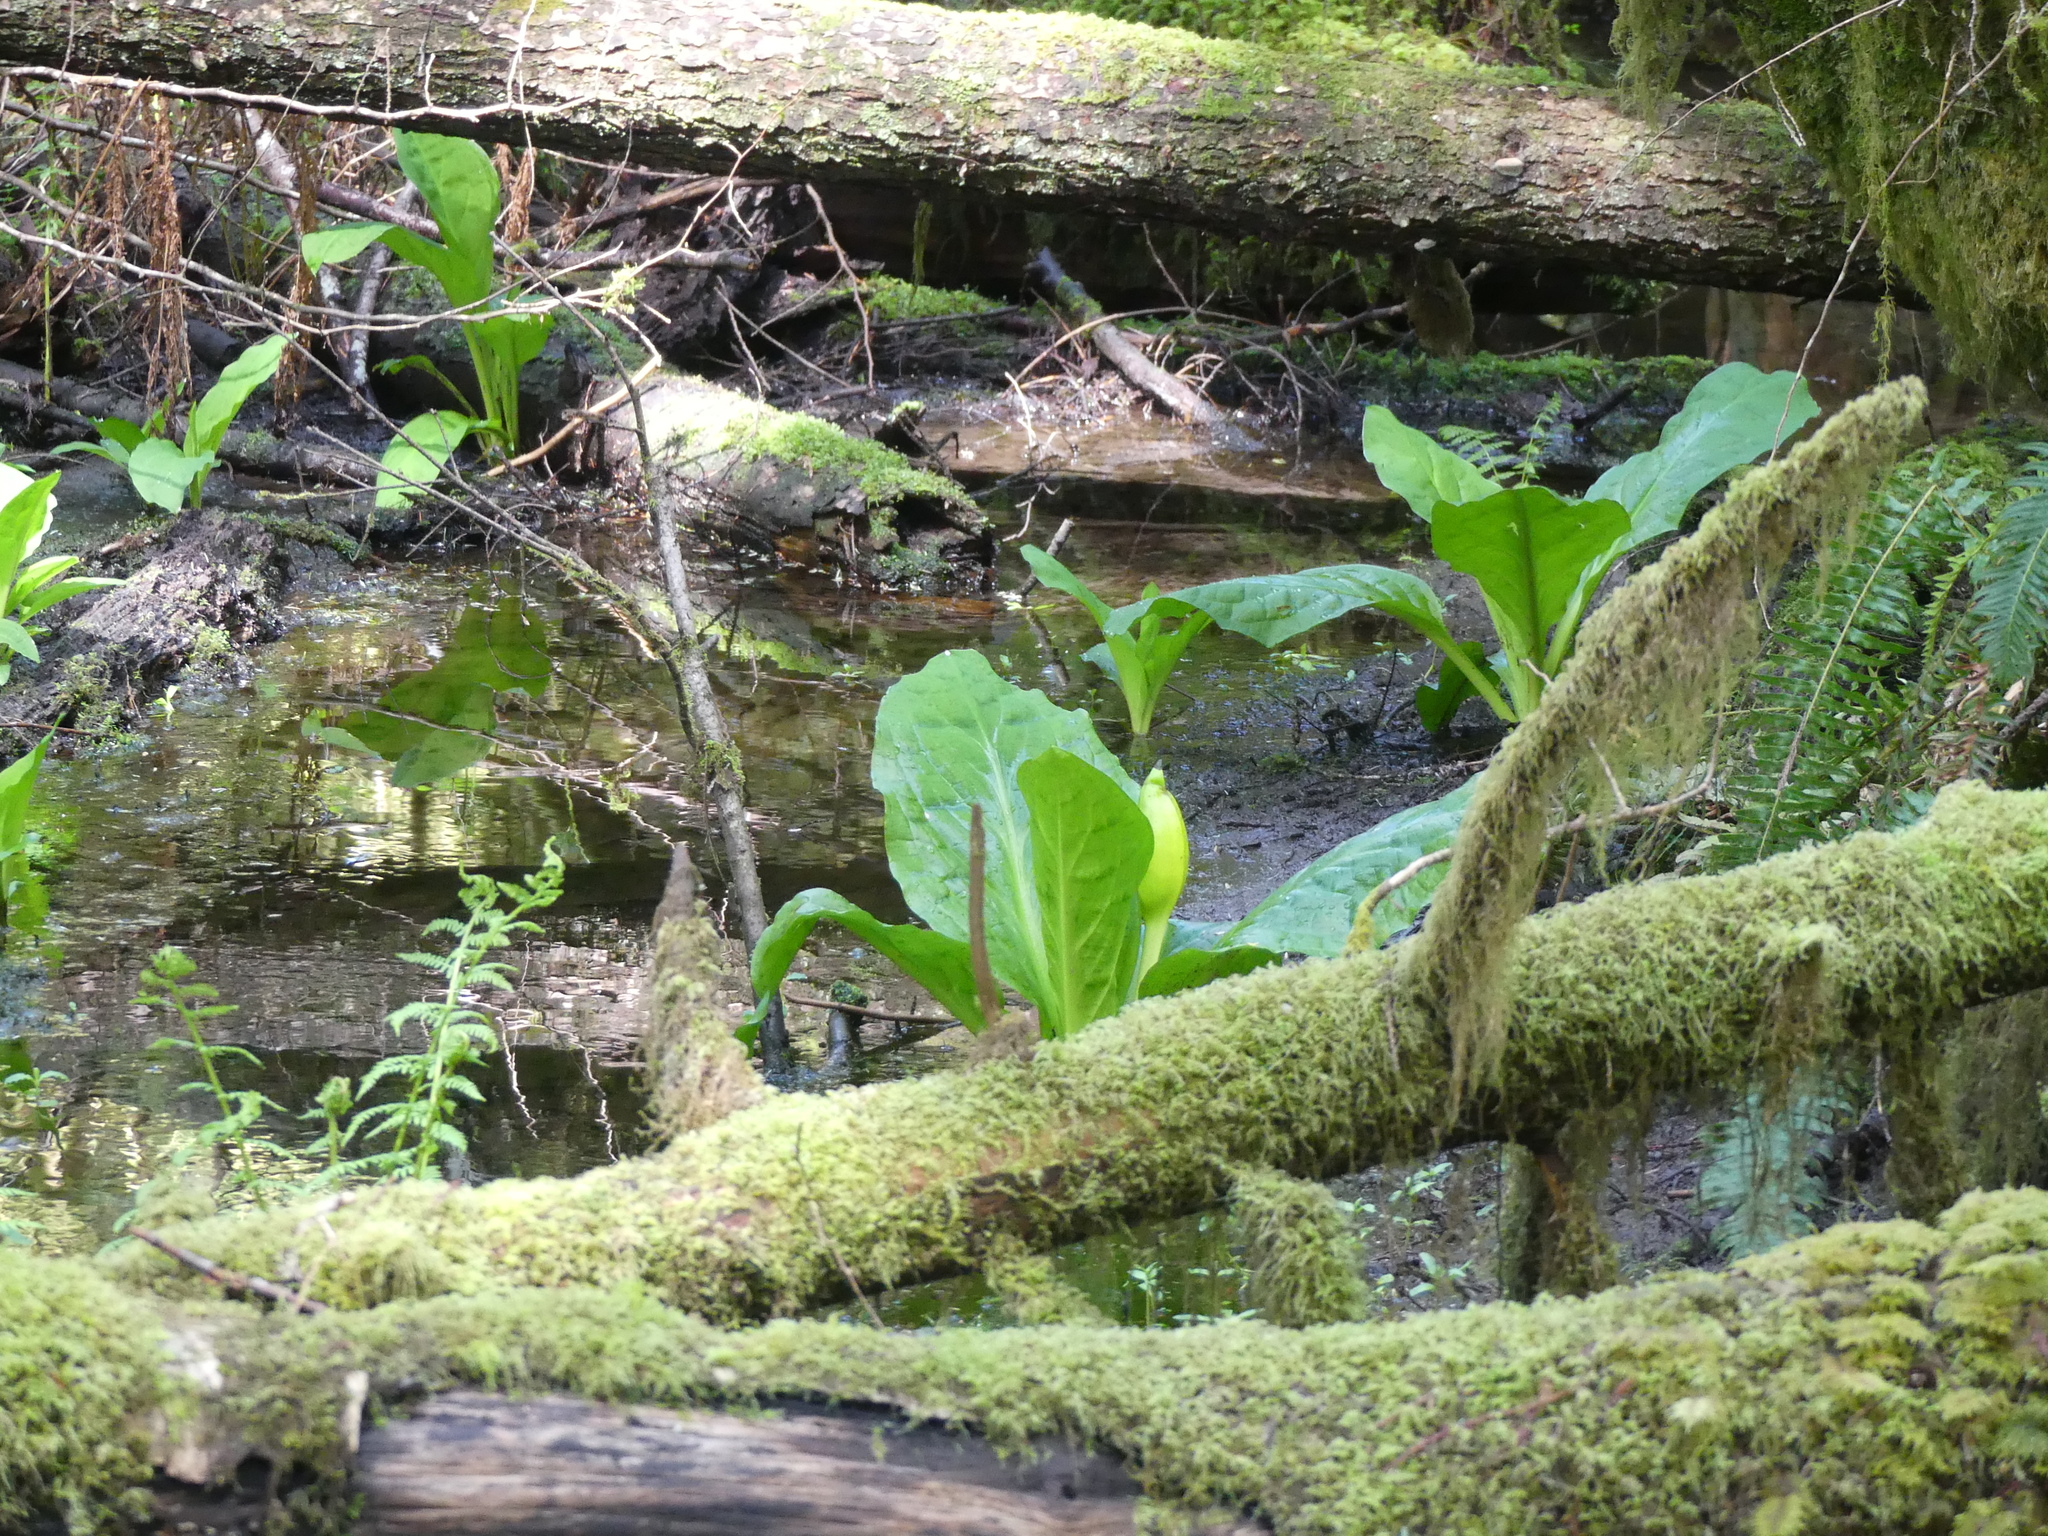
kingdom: Plantae
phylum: Tracheophyta
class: Liliopsida
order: Alismatales
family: Araceae
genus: Lysichiton
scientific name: Lysichiton americanus
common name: American skunk cabbage
